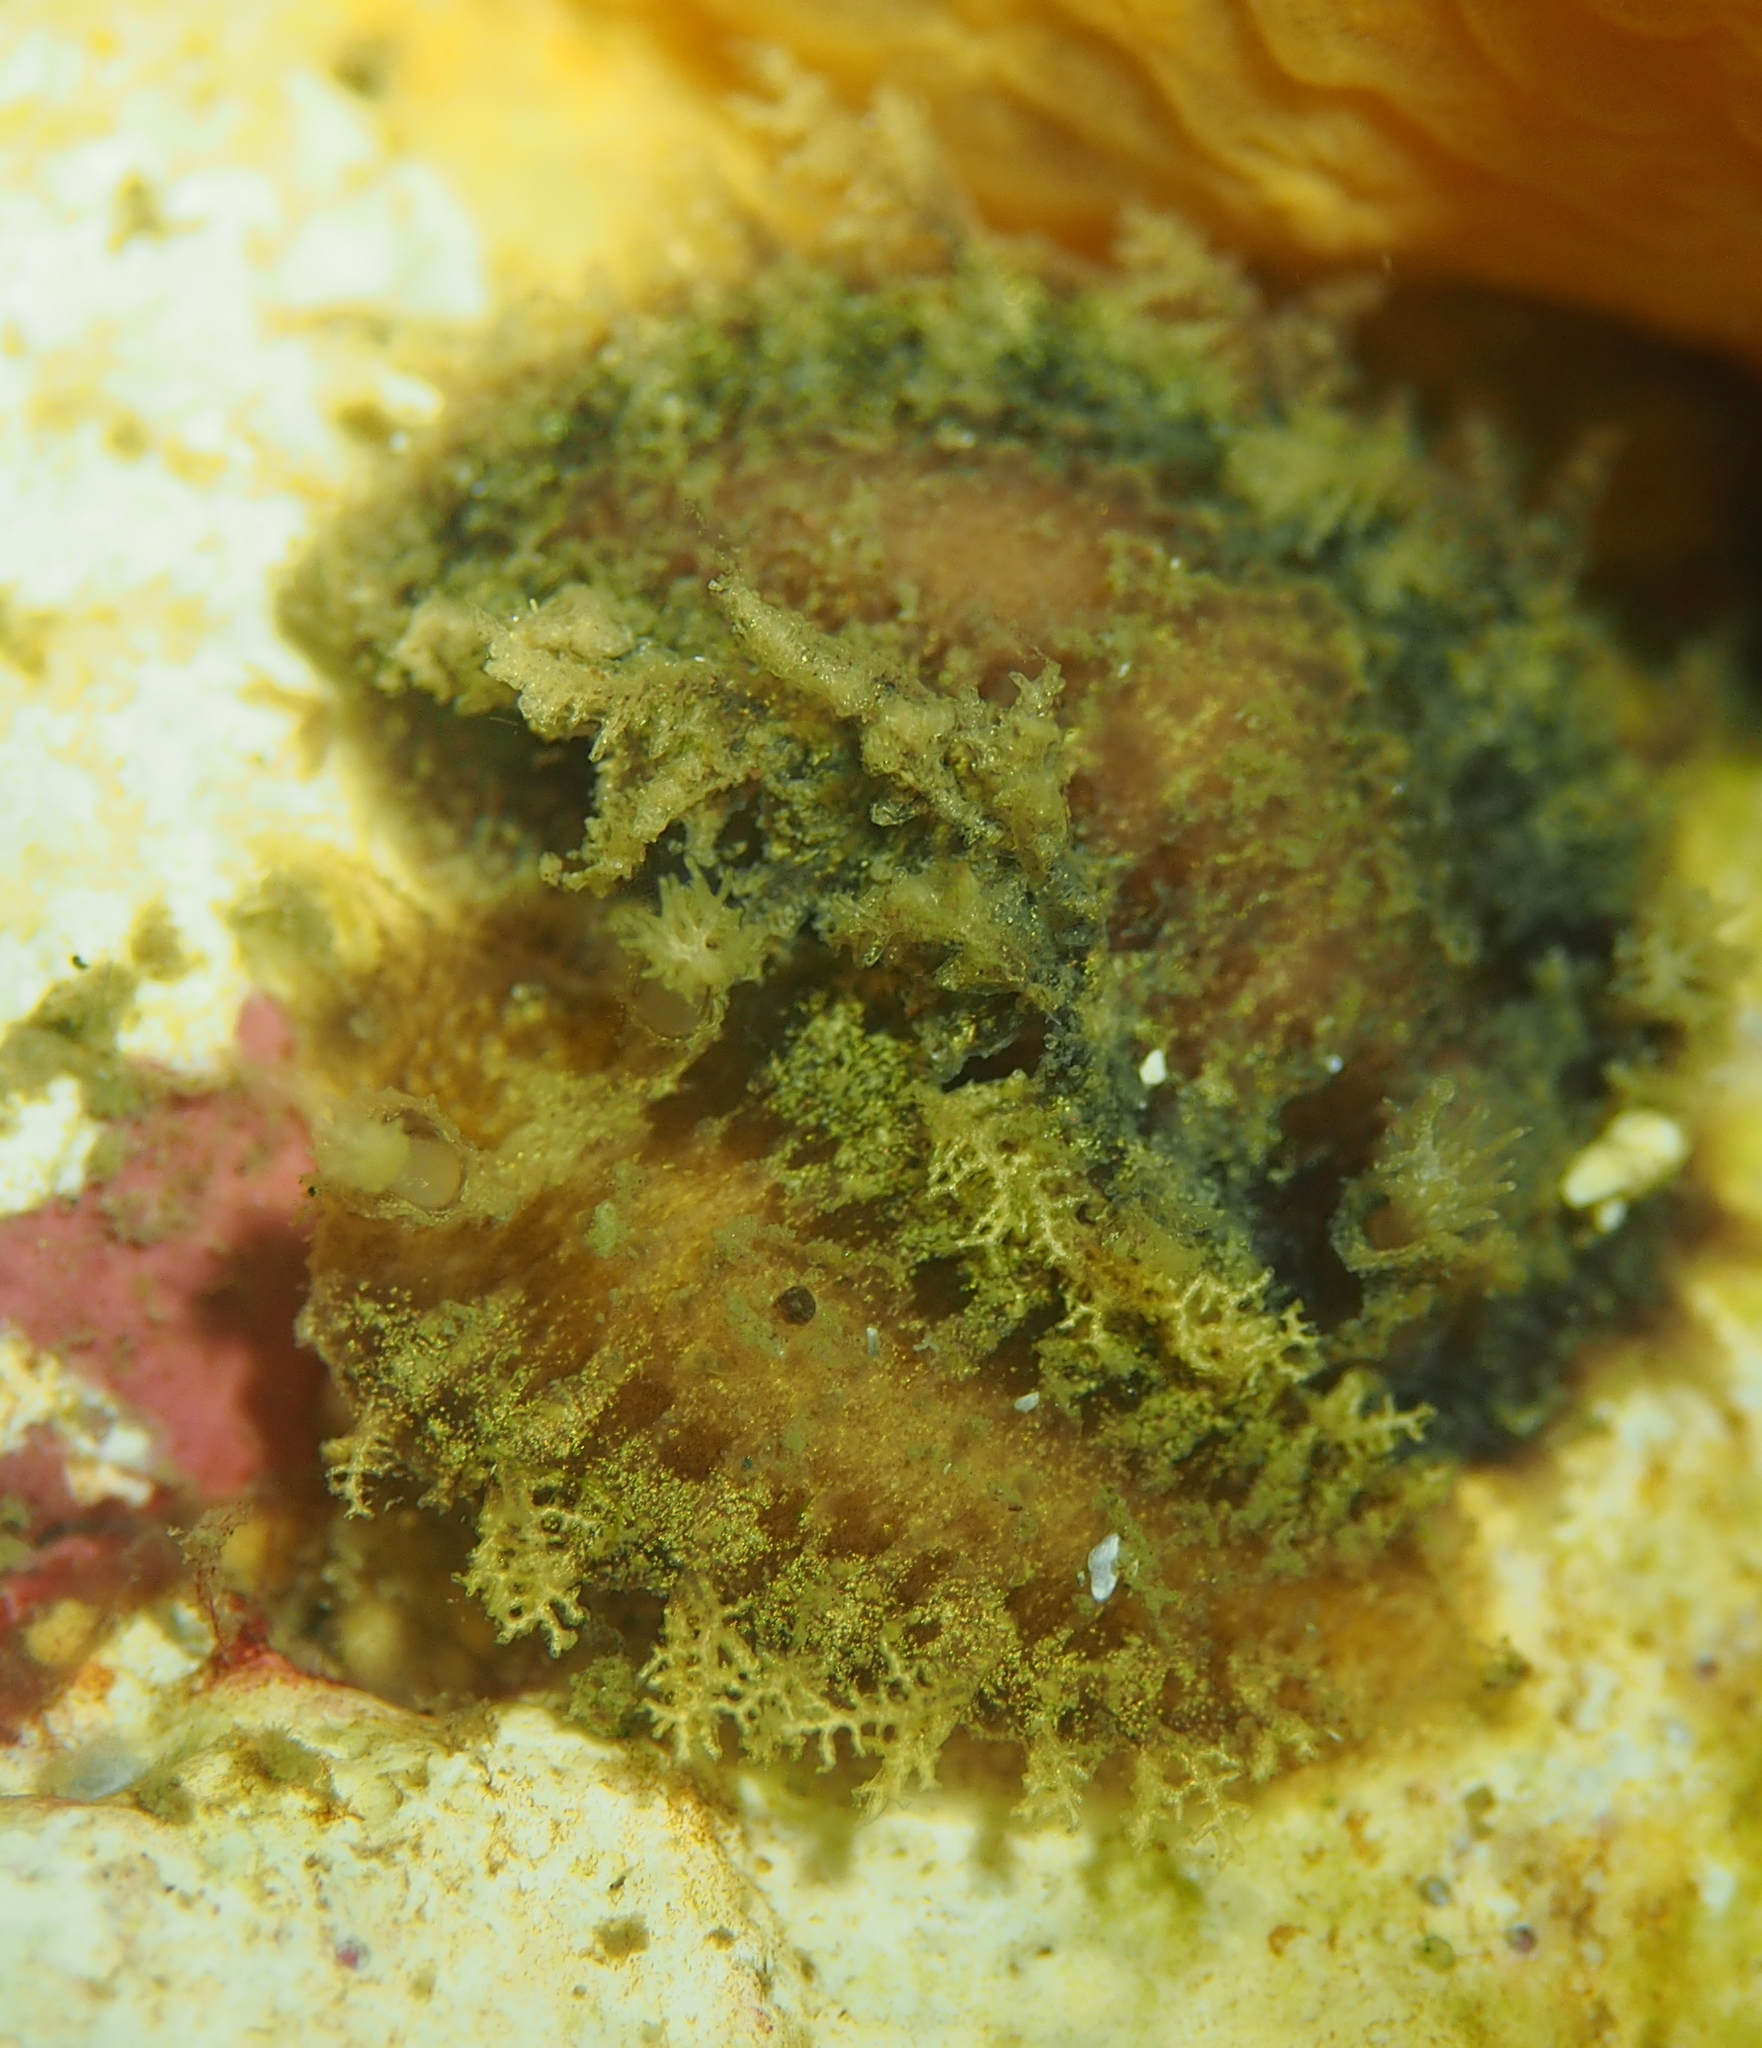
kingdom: Animalia
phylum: Mollusca
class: Gastropoda
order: Nudibranchia
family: Tritoniidae
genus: Duvaucelia
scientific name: Duvaucelia plebeia
